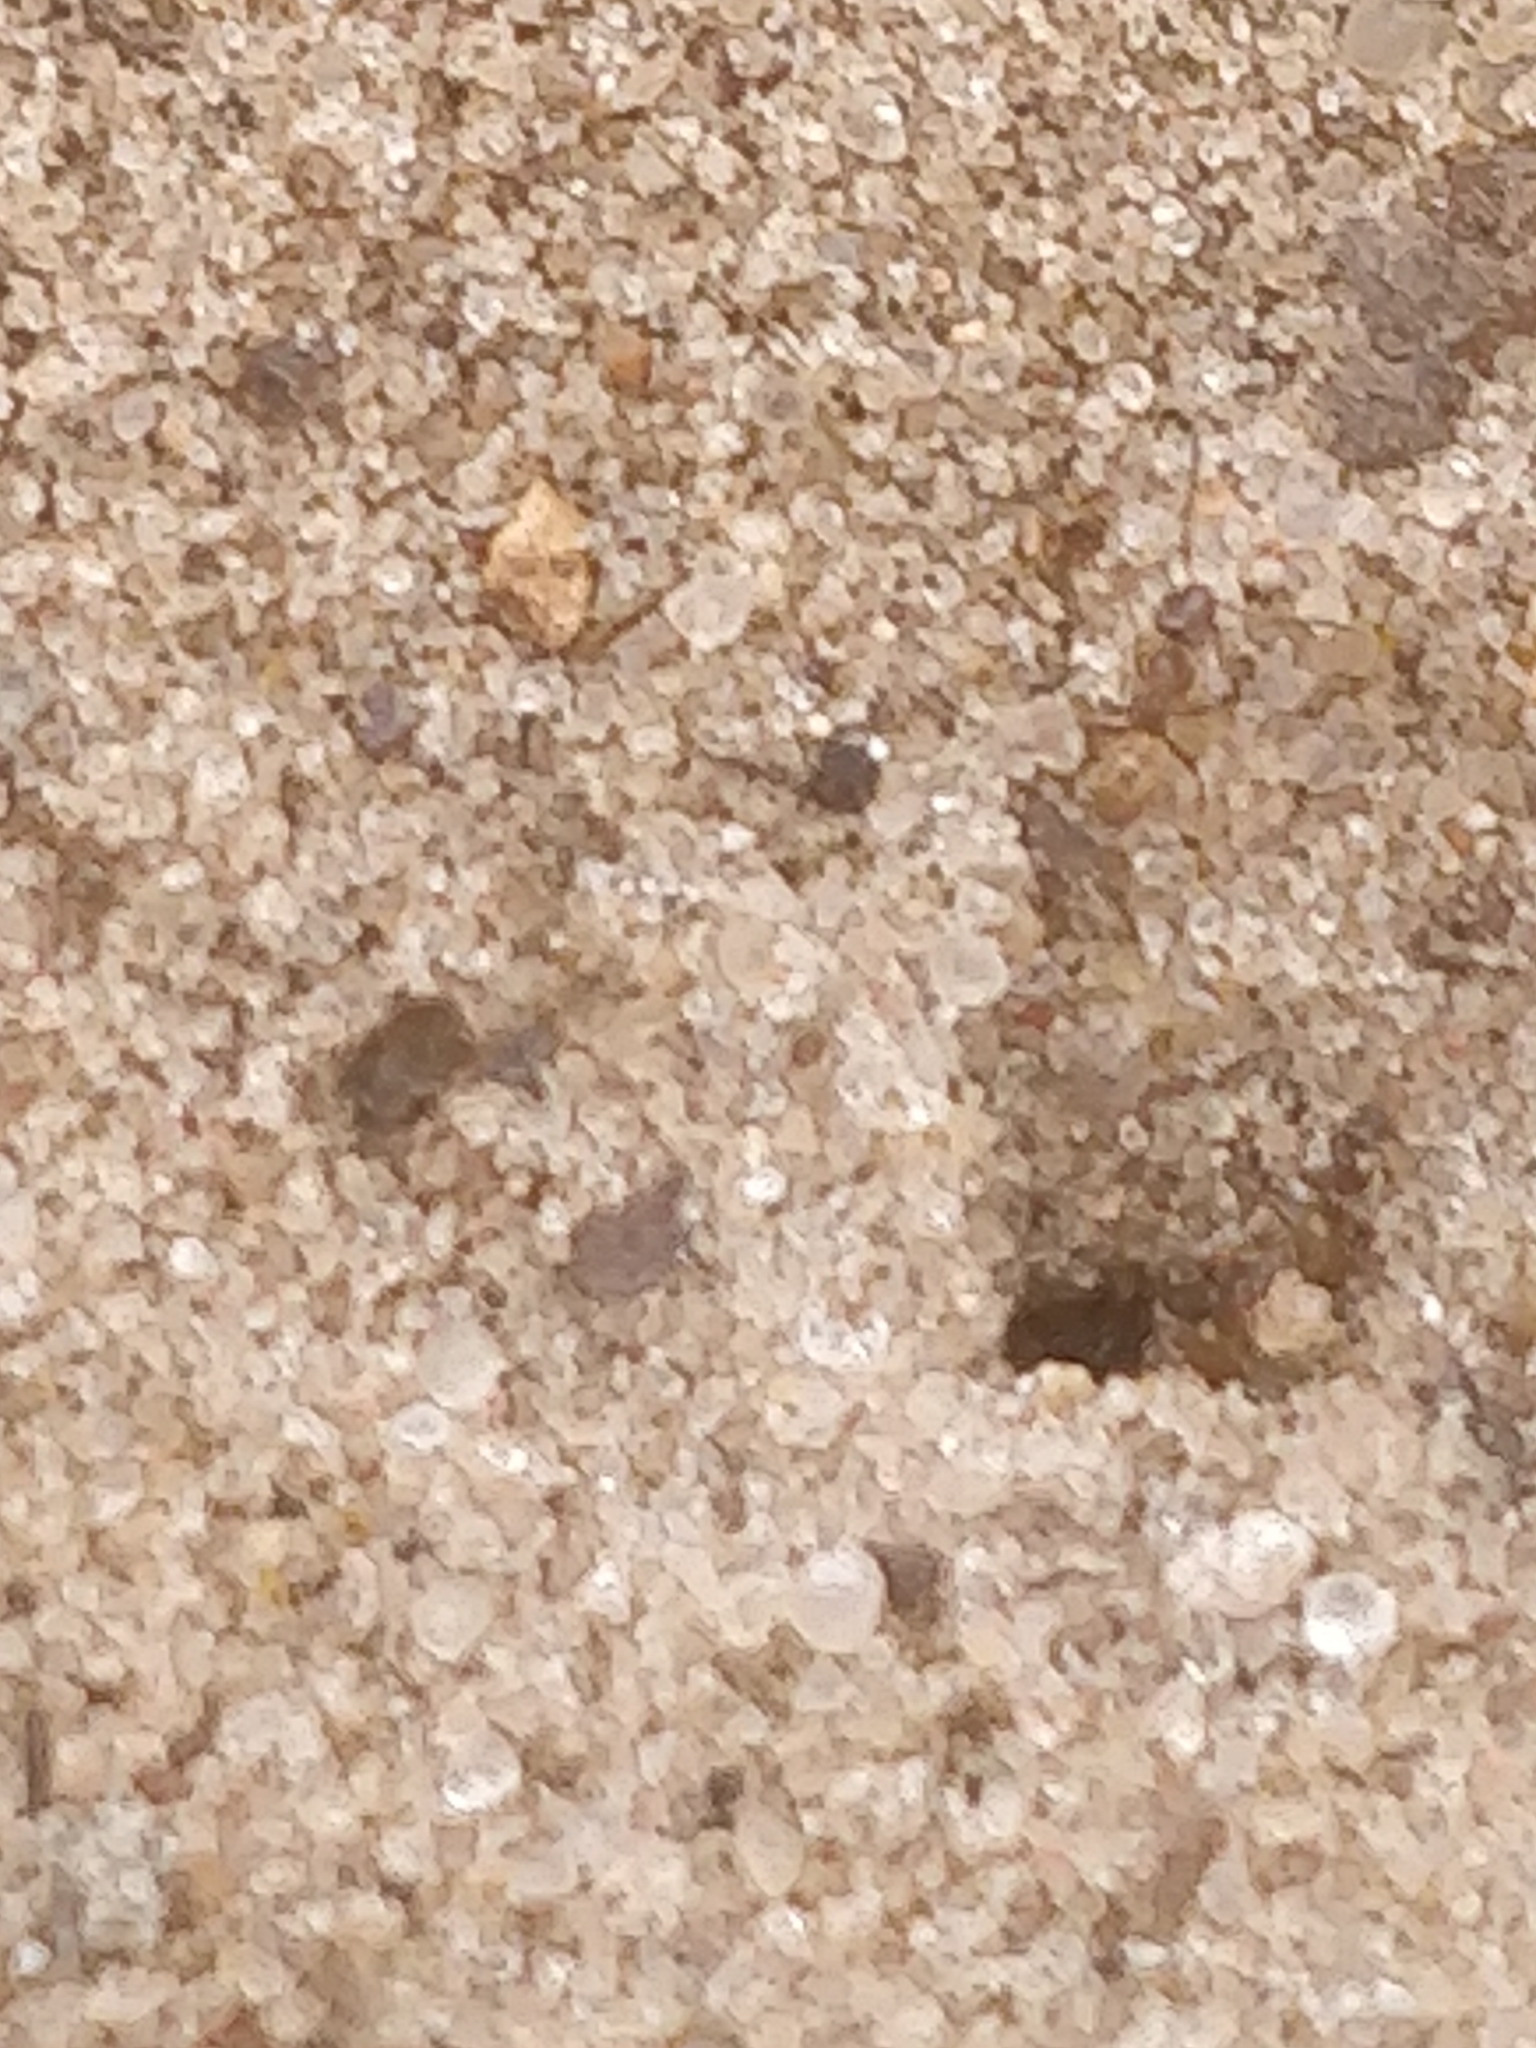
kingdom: Animalia
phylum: Arthropoda
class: Insecta
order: Hymenoptera
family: Formicidae
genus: Forelius
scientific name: Forelius pruinosus
